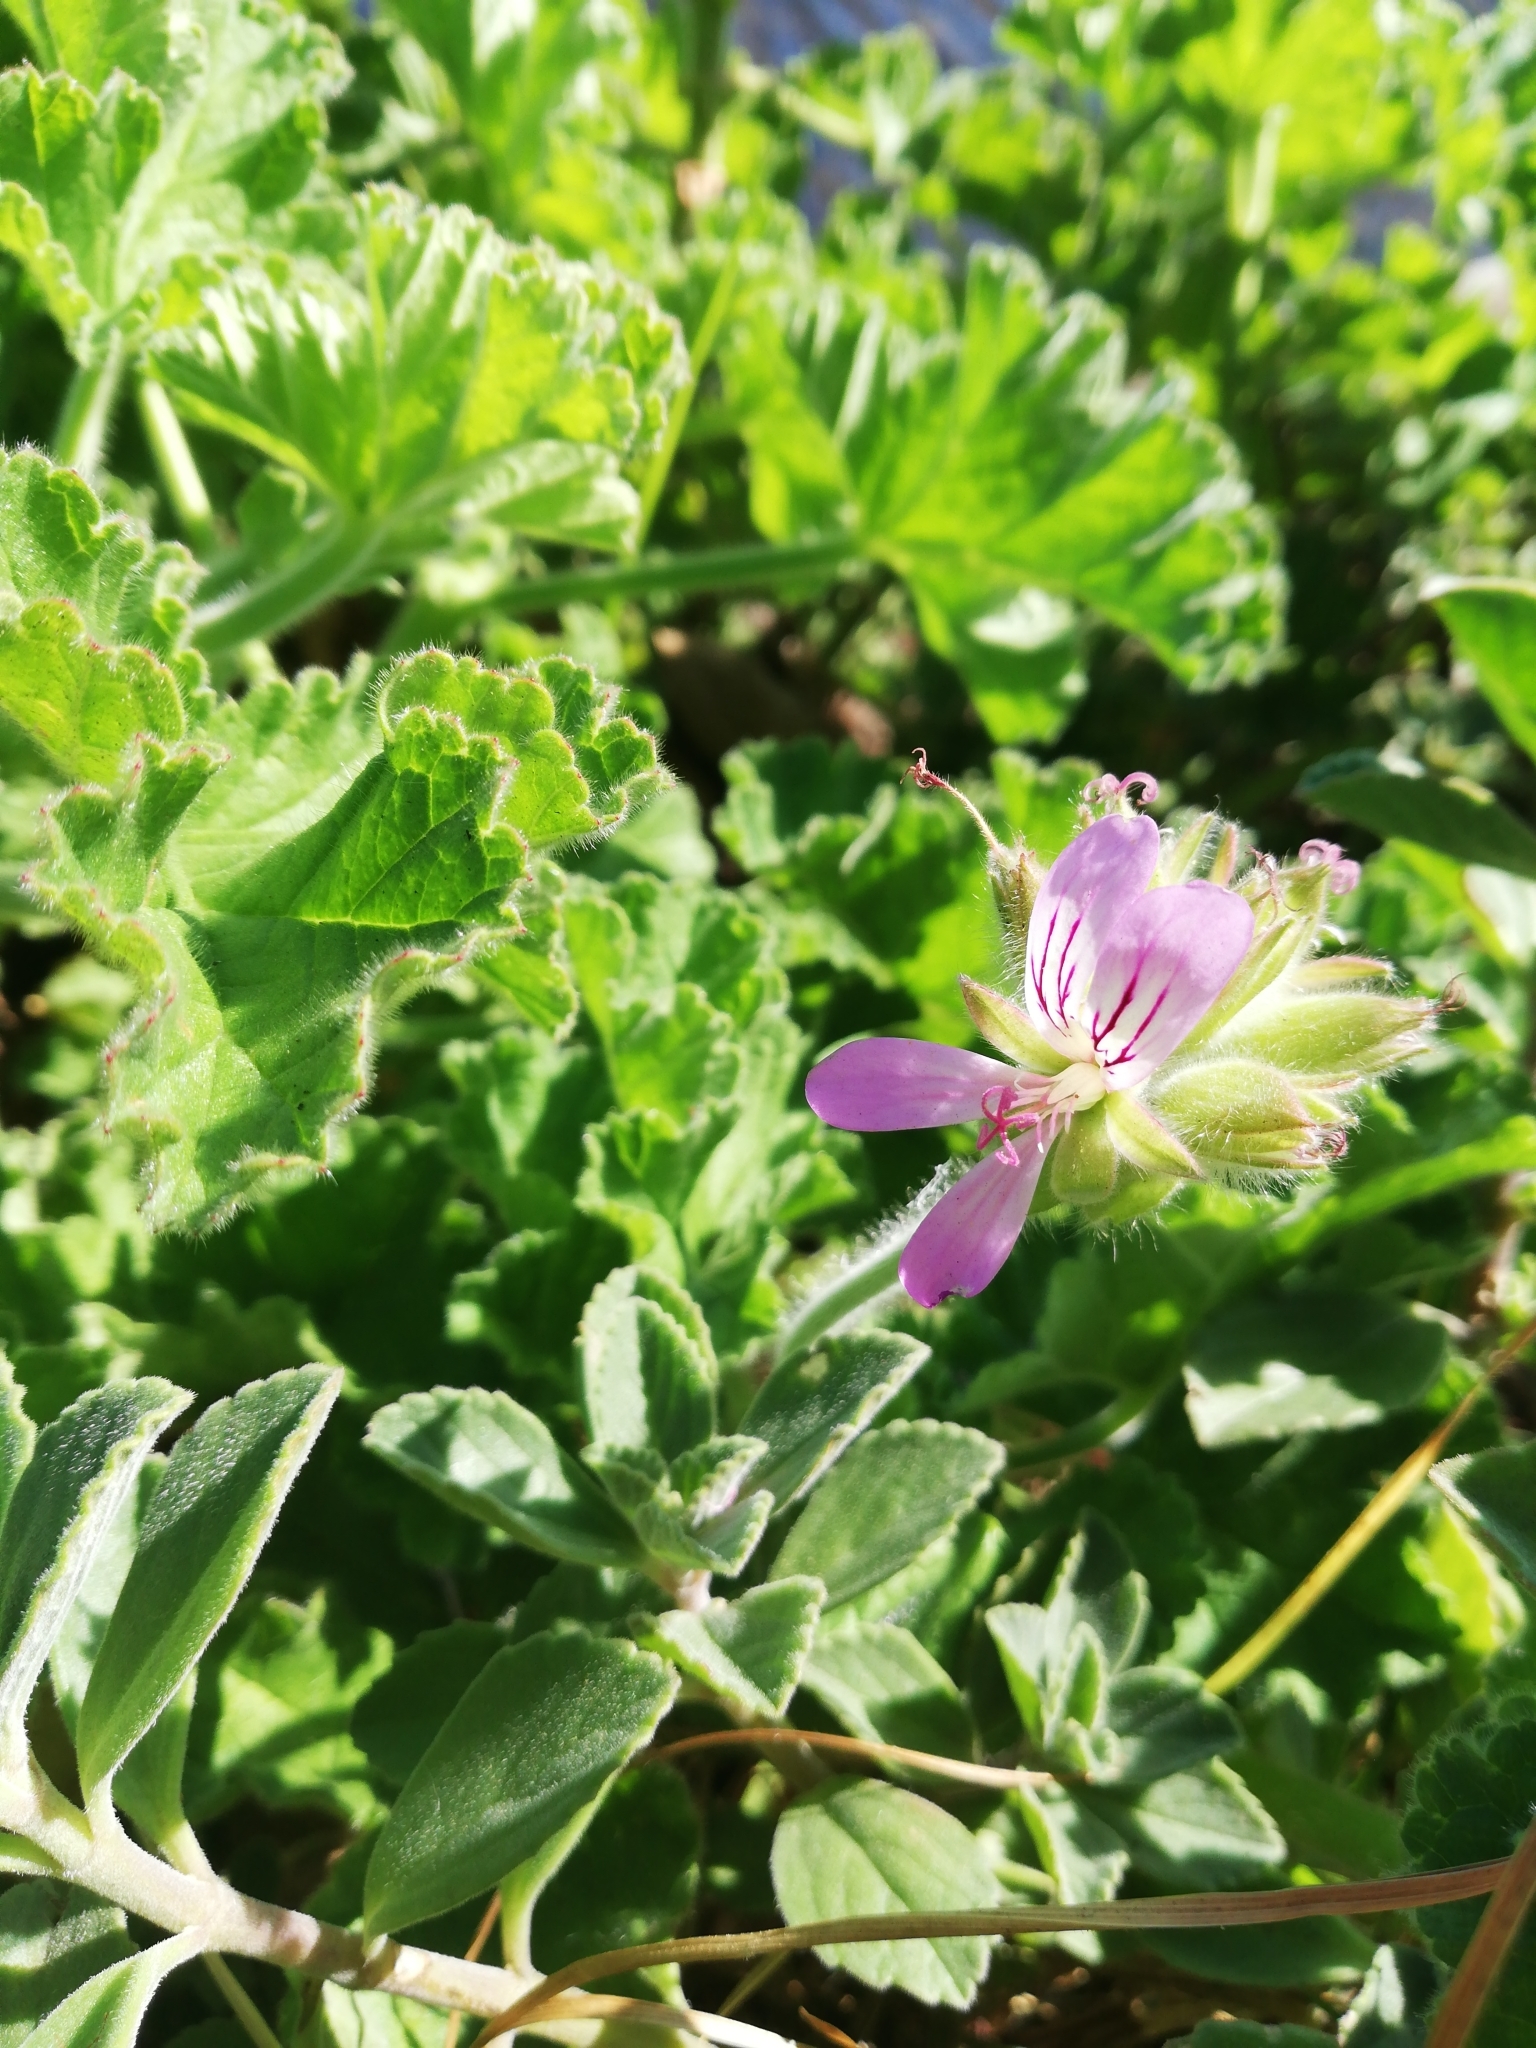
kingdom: Plantae
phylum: Tracheophyta
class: Magnoliopsida
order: Geraniales
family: Geraniaceae
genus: Pelargonium
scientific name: Pelargonium capitatum
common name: Rose scented geranium
